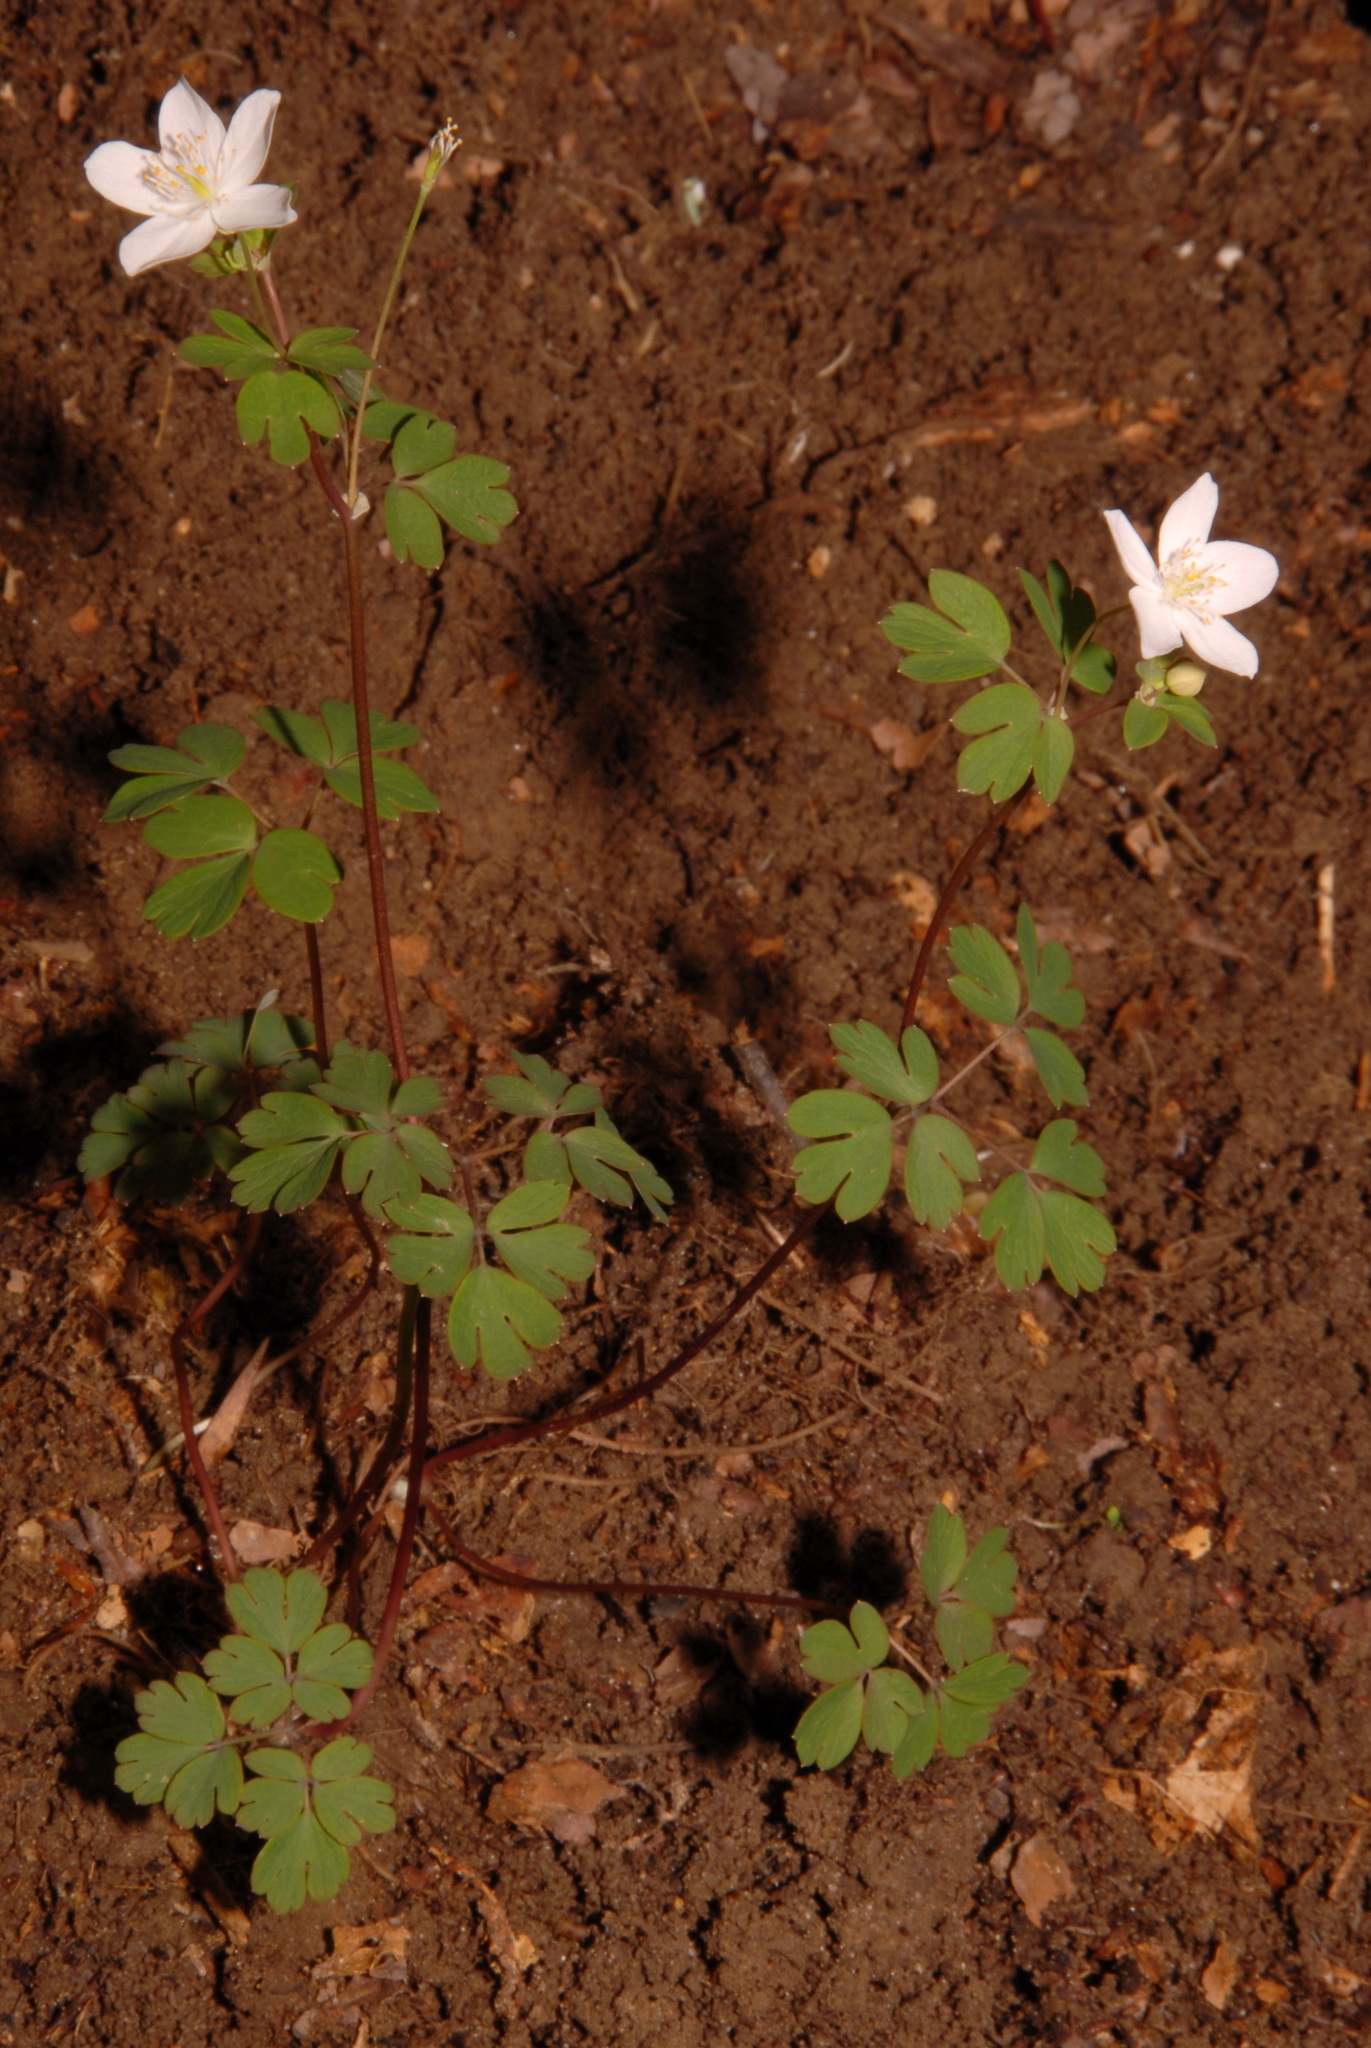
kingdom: Plantae
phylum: Tracheophyta
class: Magnoliopsida
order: Ranunculales
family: Ranunculaceae
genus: Enemion
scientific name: Enemion biternatum
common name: Eastern false rue-anemone
